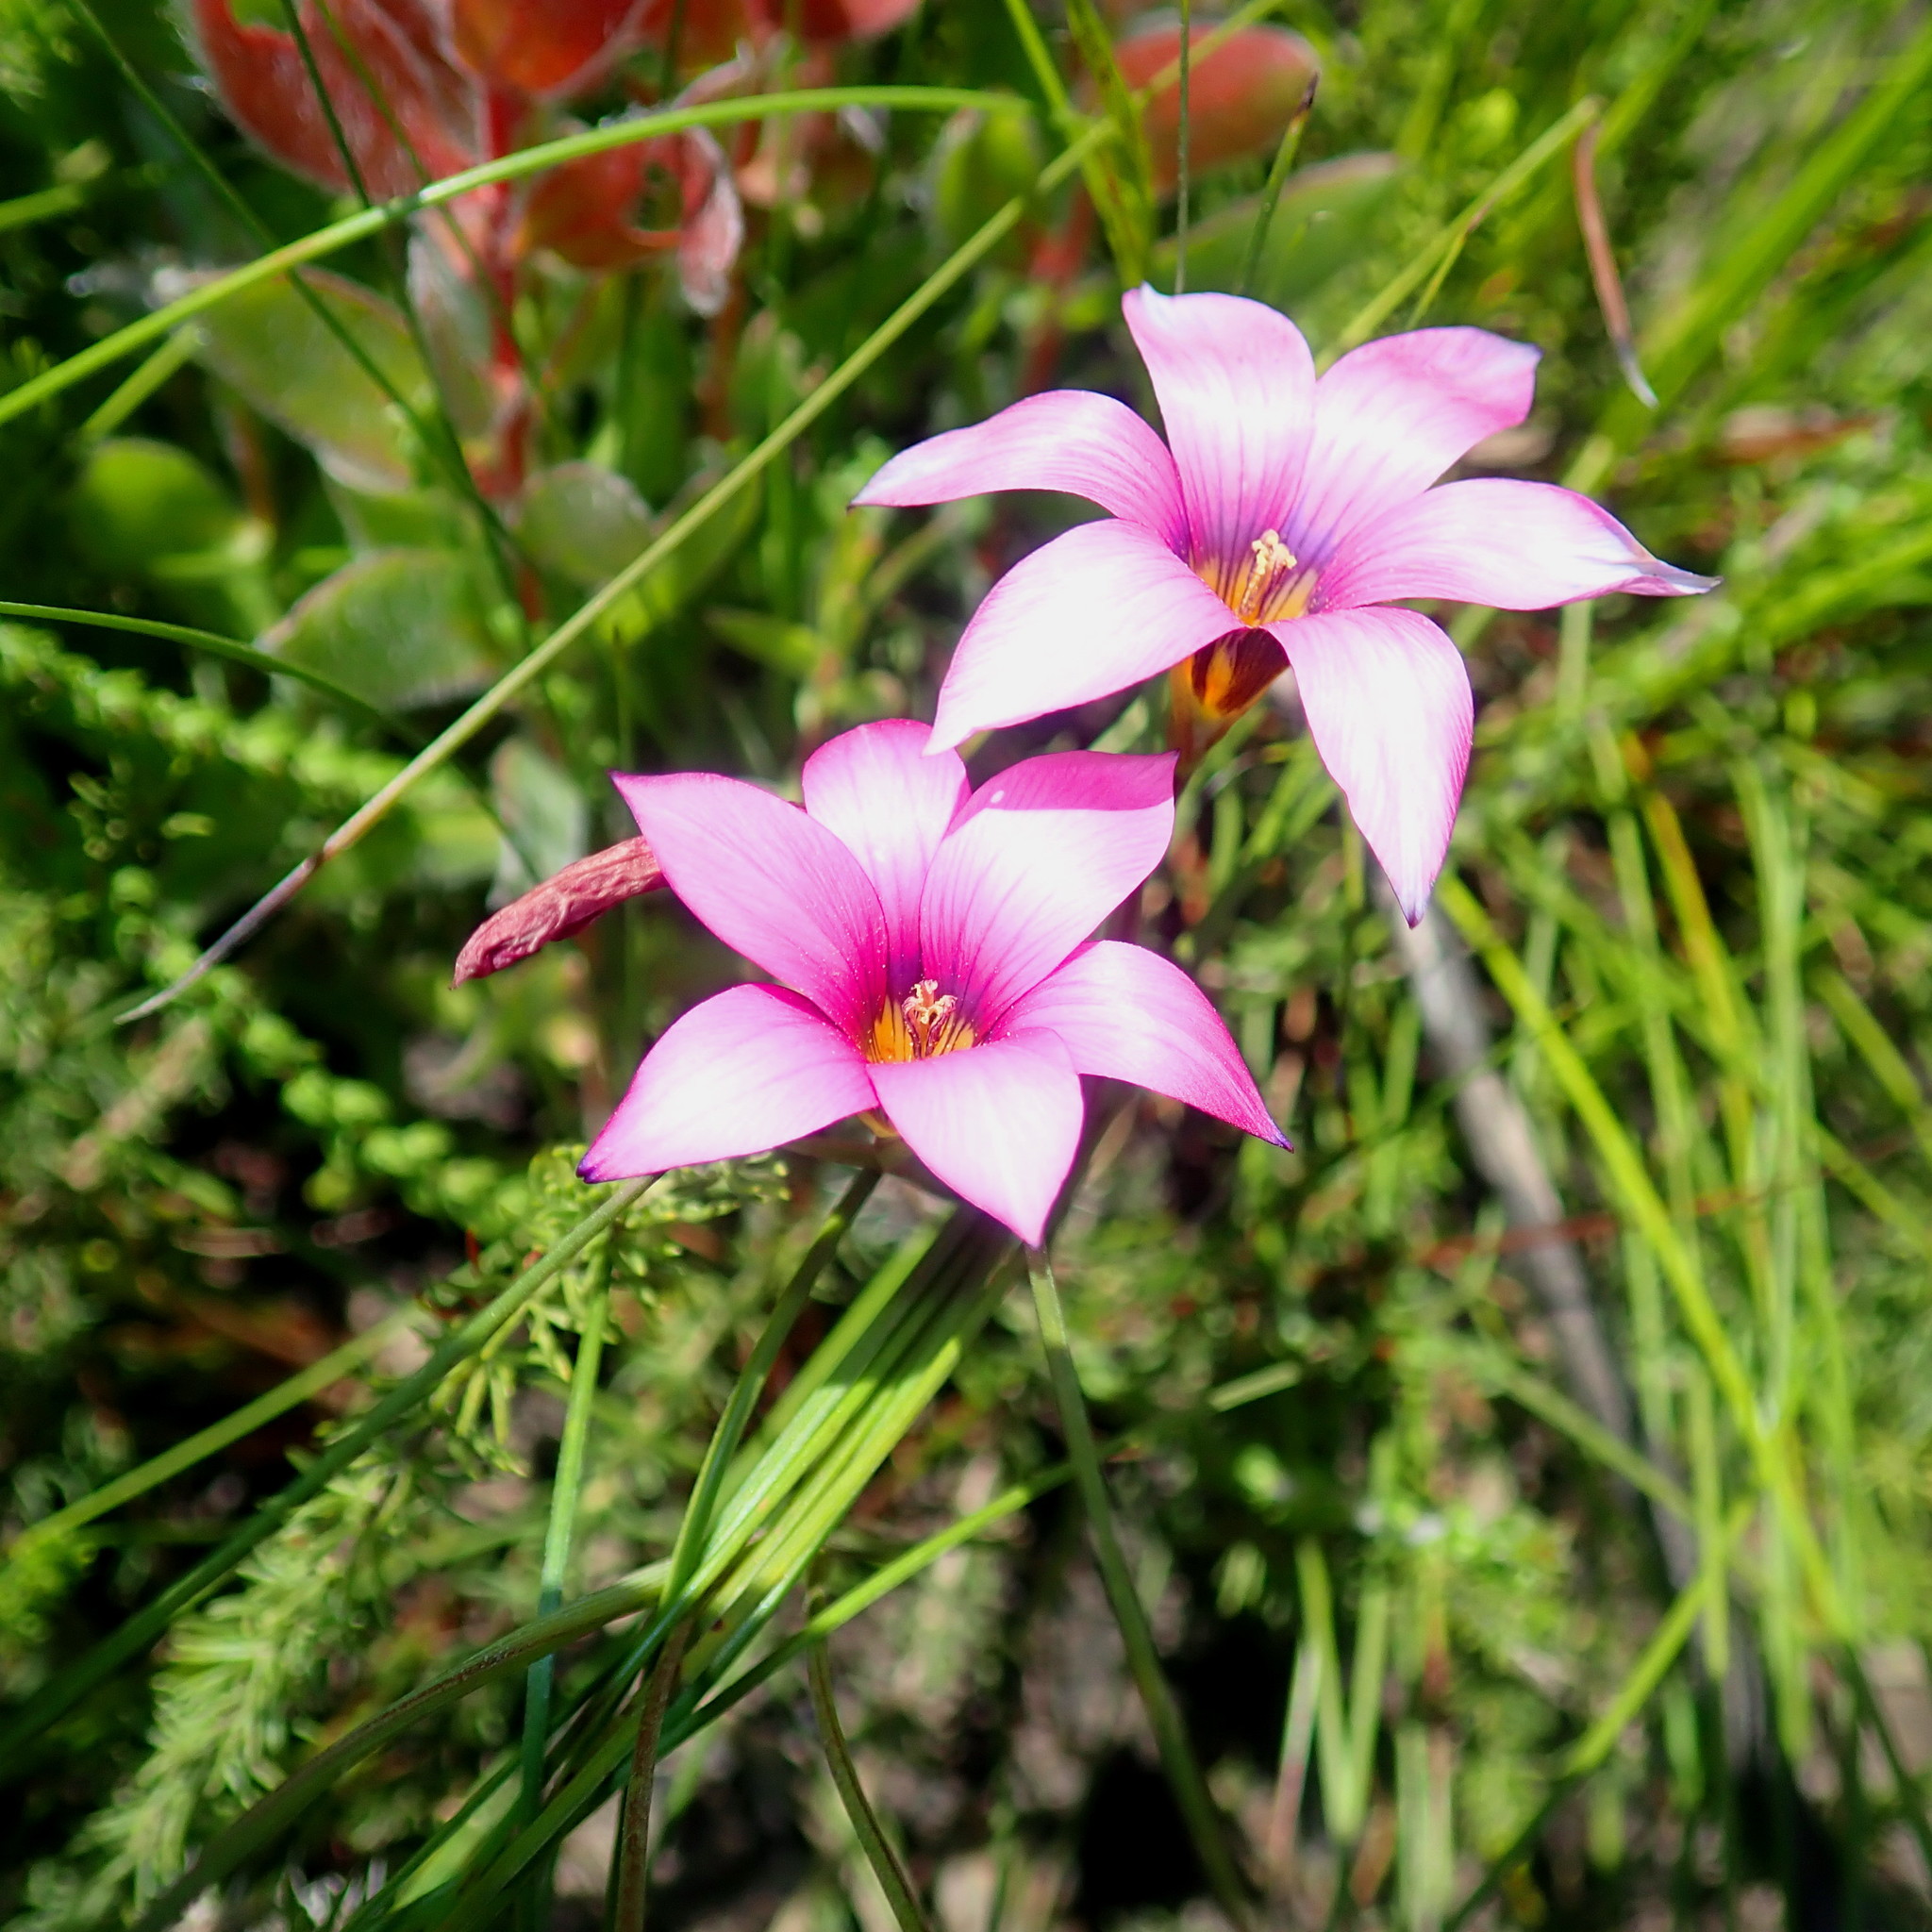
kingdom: Plantae
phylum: Tracheophyta
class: Liliopsida
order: Asparagales
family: Iridaceae
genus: Romulea
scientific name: Romulea rosea
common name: Oniongrass
